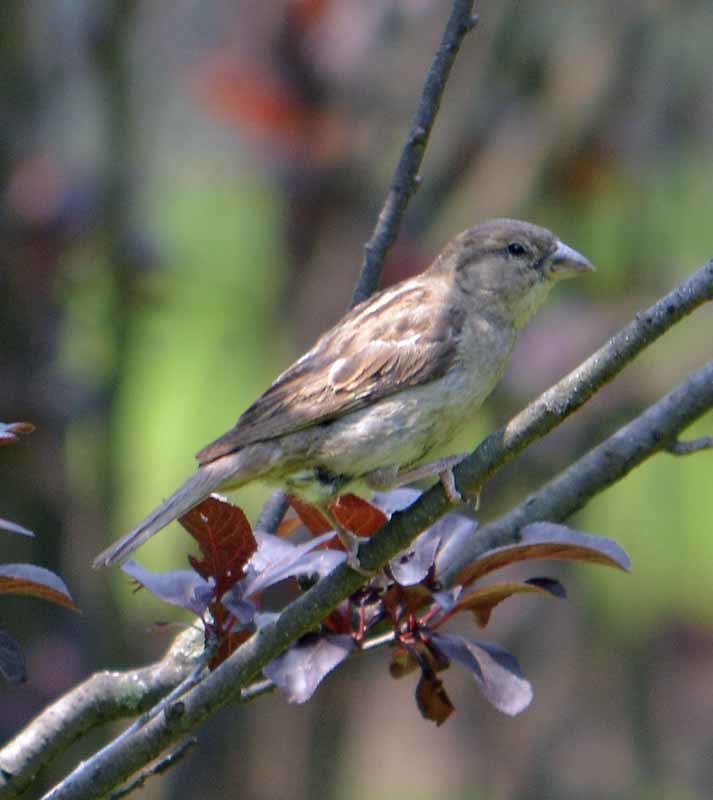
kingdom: Animalia
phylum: Chordata
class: Aves
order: Passeriformes
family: Passeridae
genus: Passer
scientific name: Passer domesticus
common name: House sparrow
